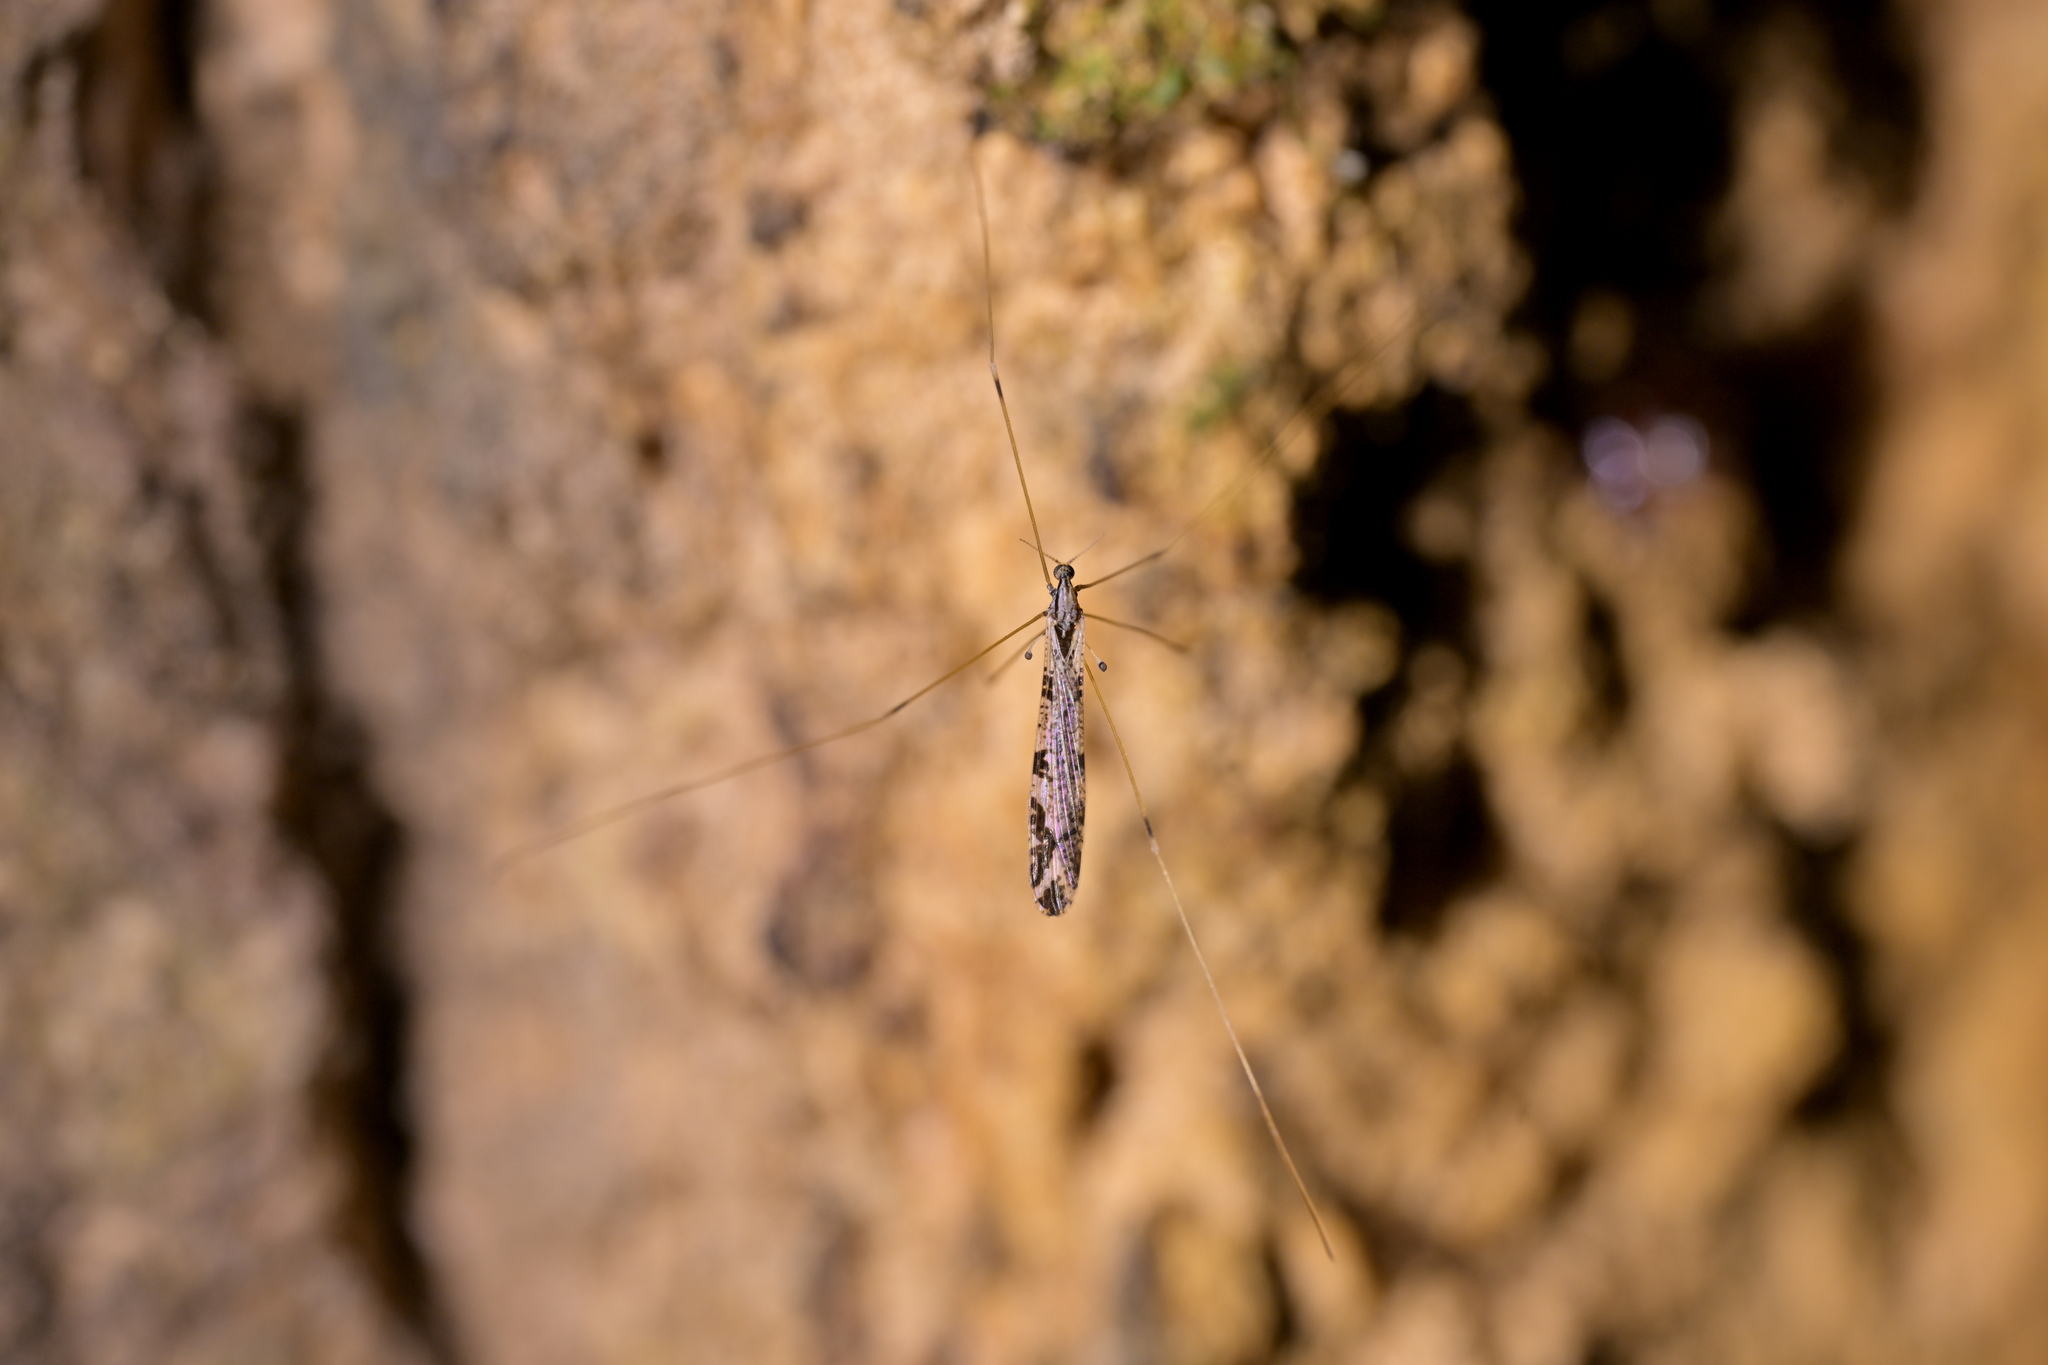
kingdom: Animalia
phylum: Arthropoda
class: Insecta
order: Diptera
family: Limoniidae
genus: Discobola
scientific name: Discobola striata
